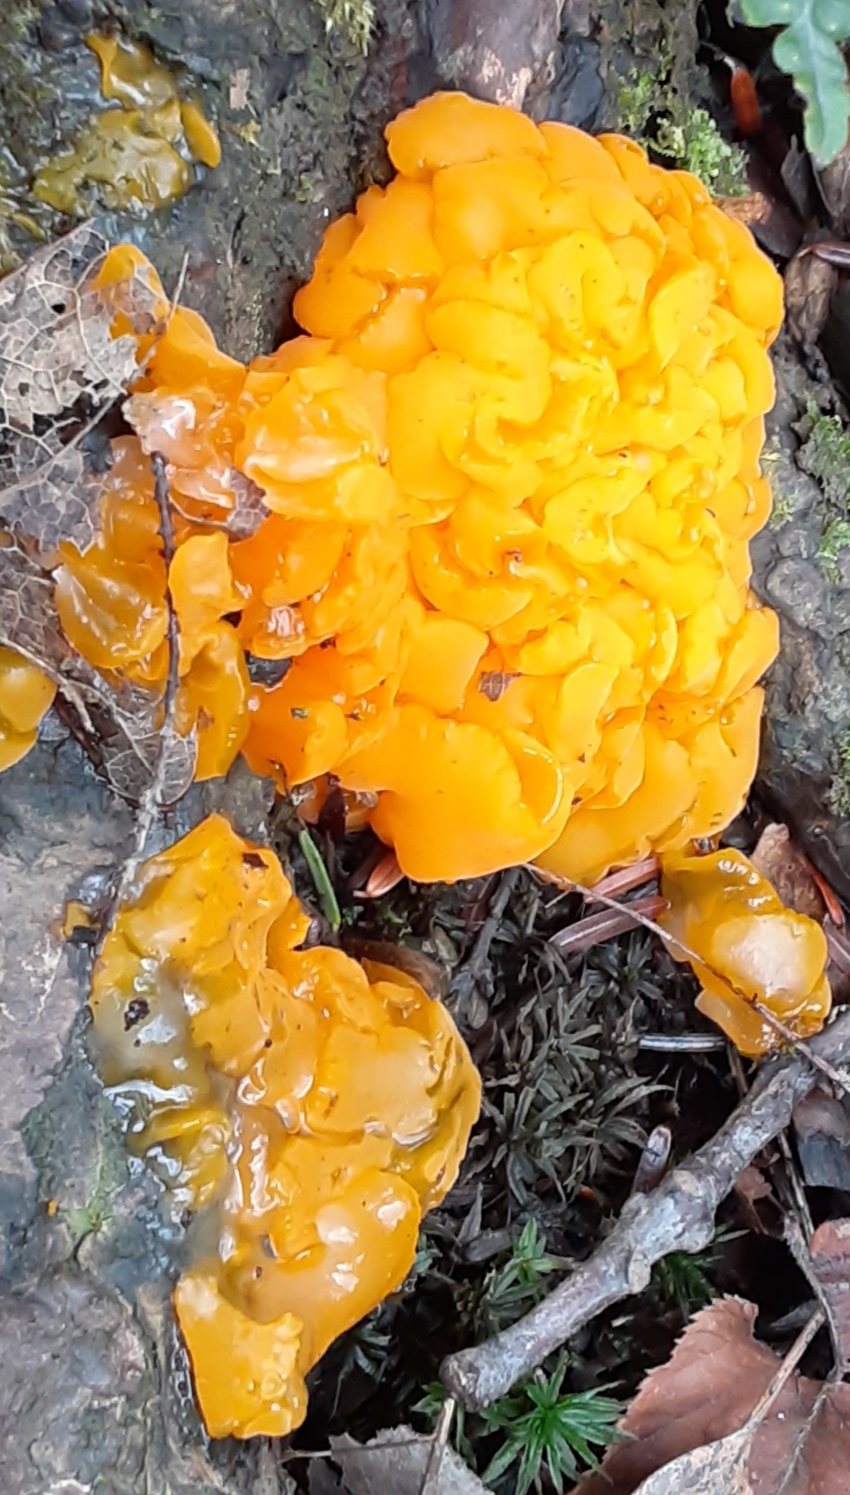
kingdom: Fungi
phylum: Basidiomycota
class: Dacrymycetes
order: Dacrymycetales
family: Dacrymycetaceae
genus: Dacrymyces
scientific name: Dacrymyces chrysospermus
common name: Orange jelly spot
